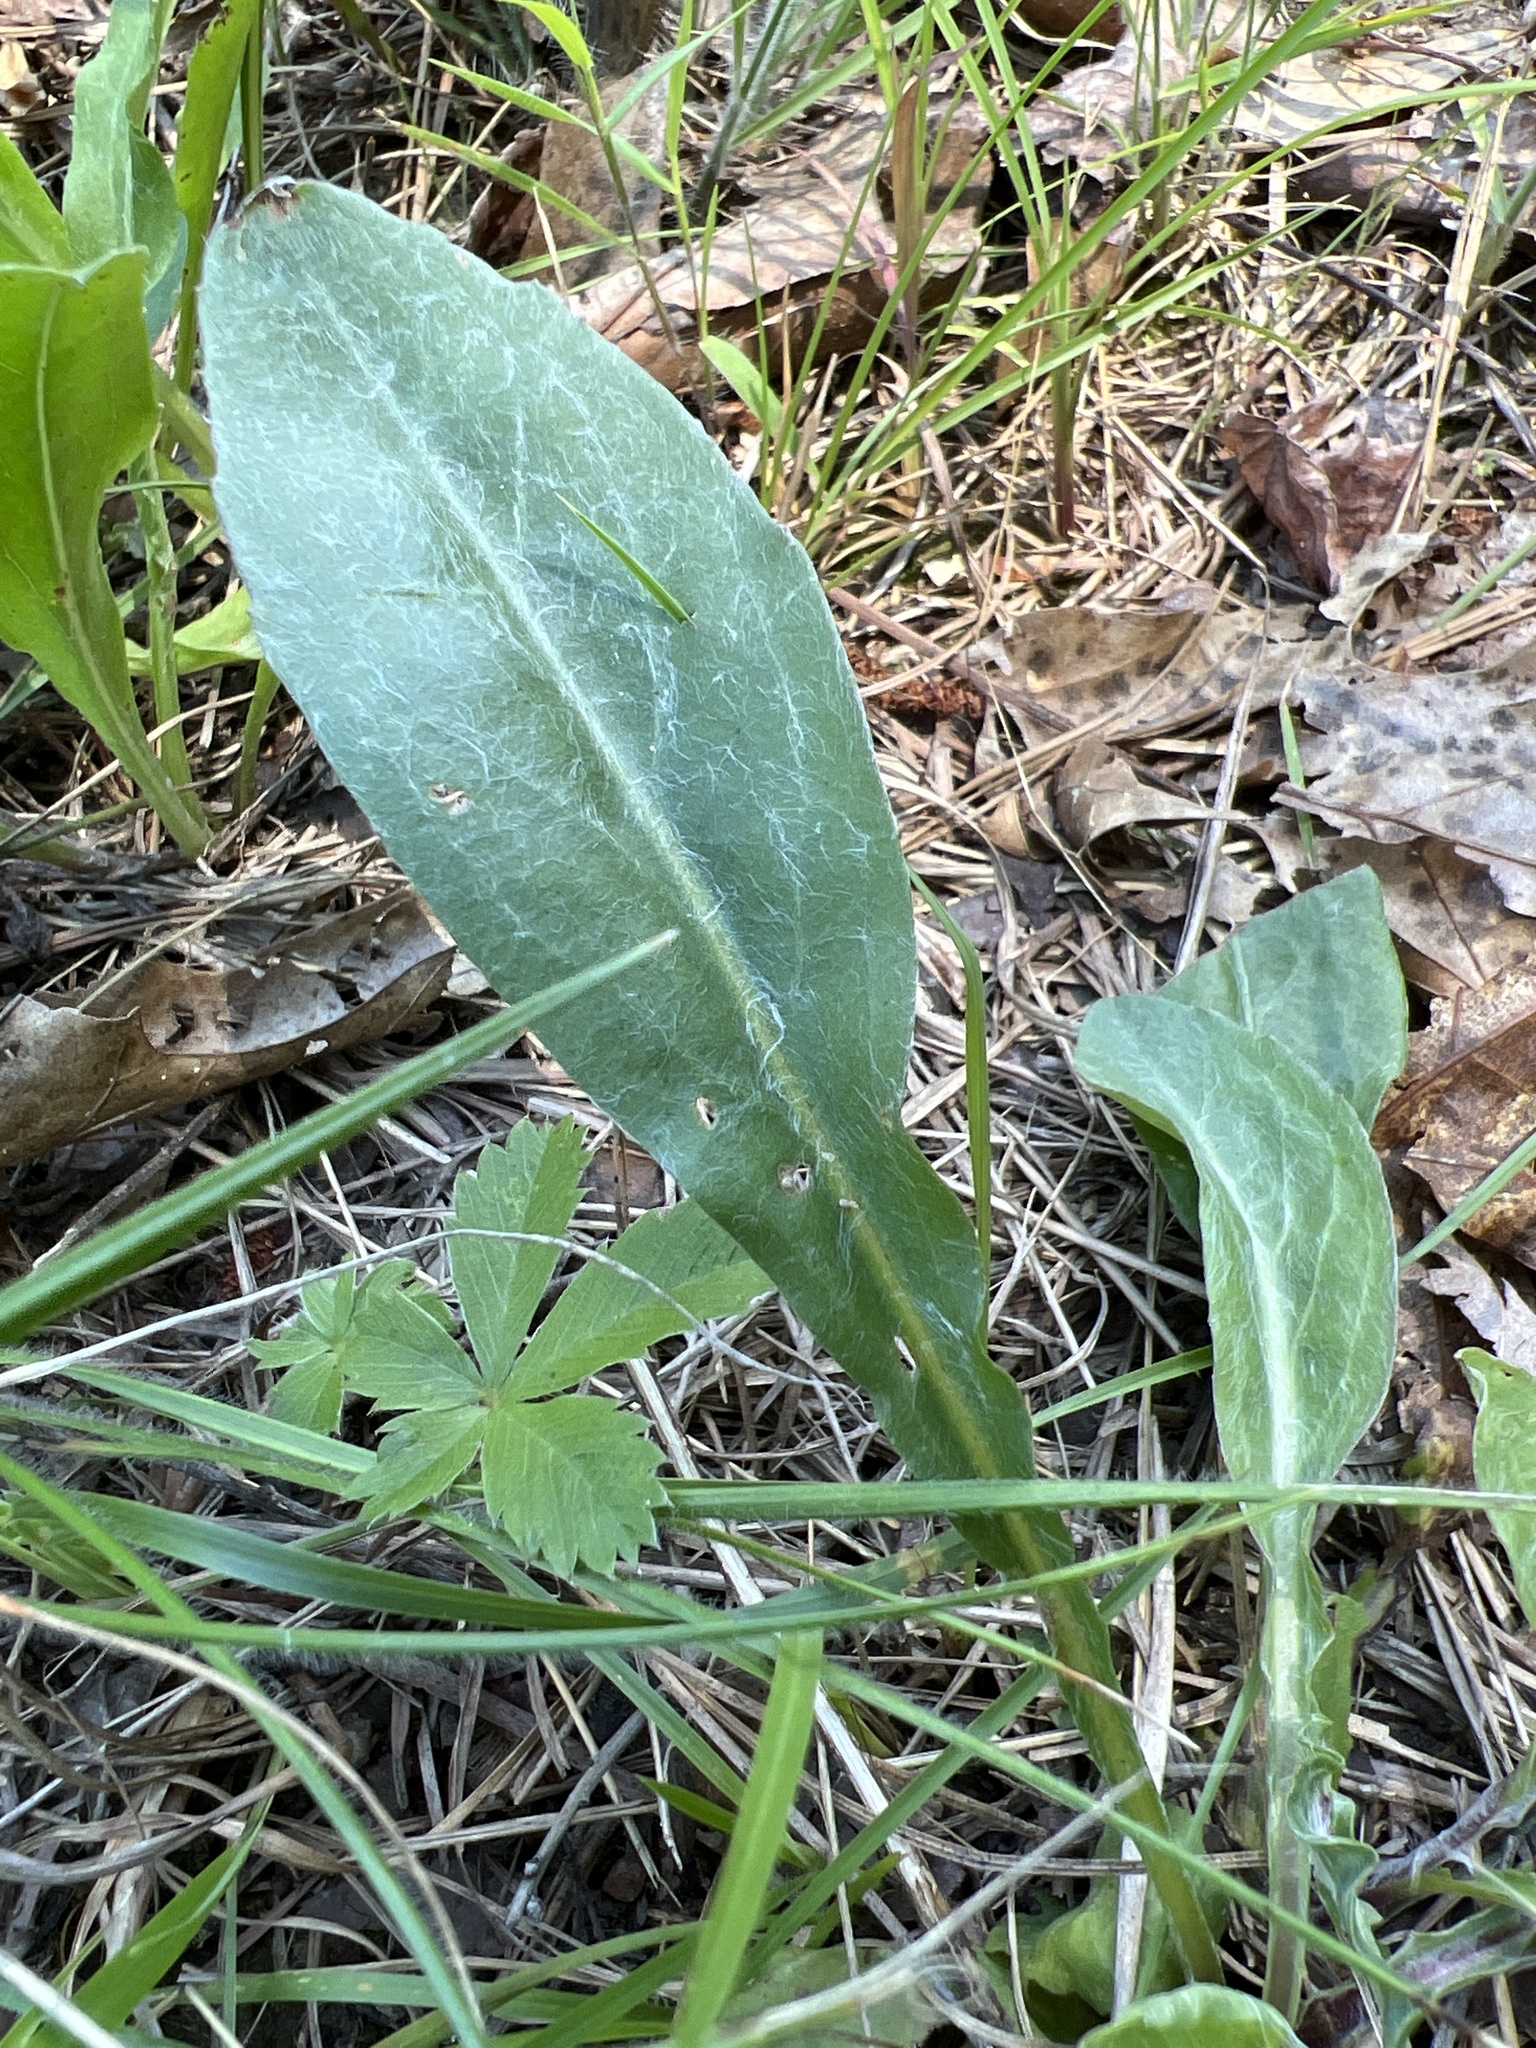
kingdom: Plantae
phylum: Tracheophyta
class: Magnoliopsida
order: Asterales
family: Asteraceae
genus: Chrysopsis
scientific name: Chrysopsis mariana
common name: Maryland golden-aster
